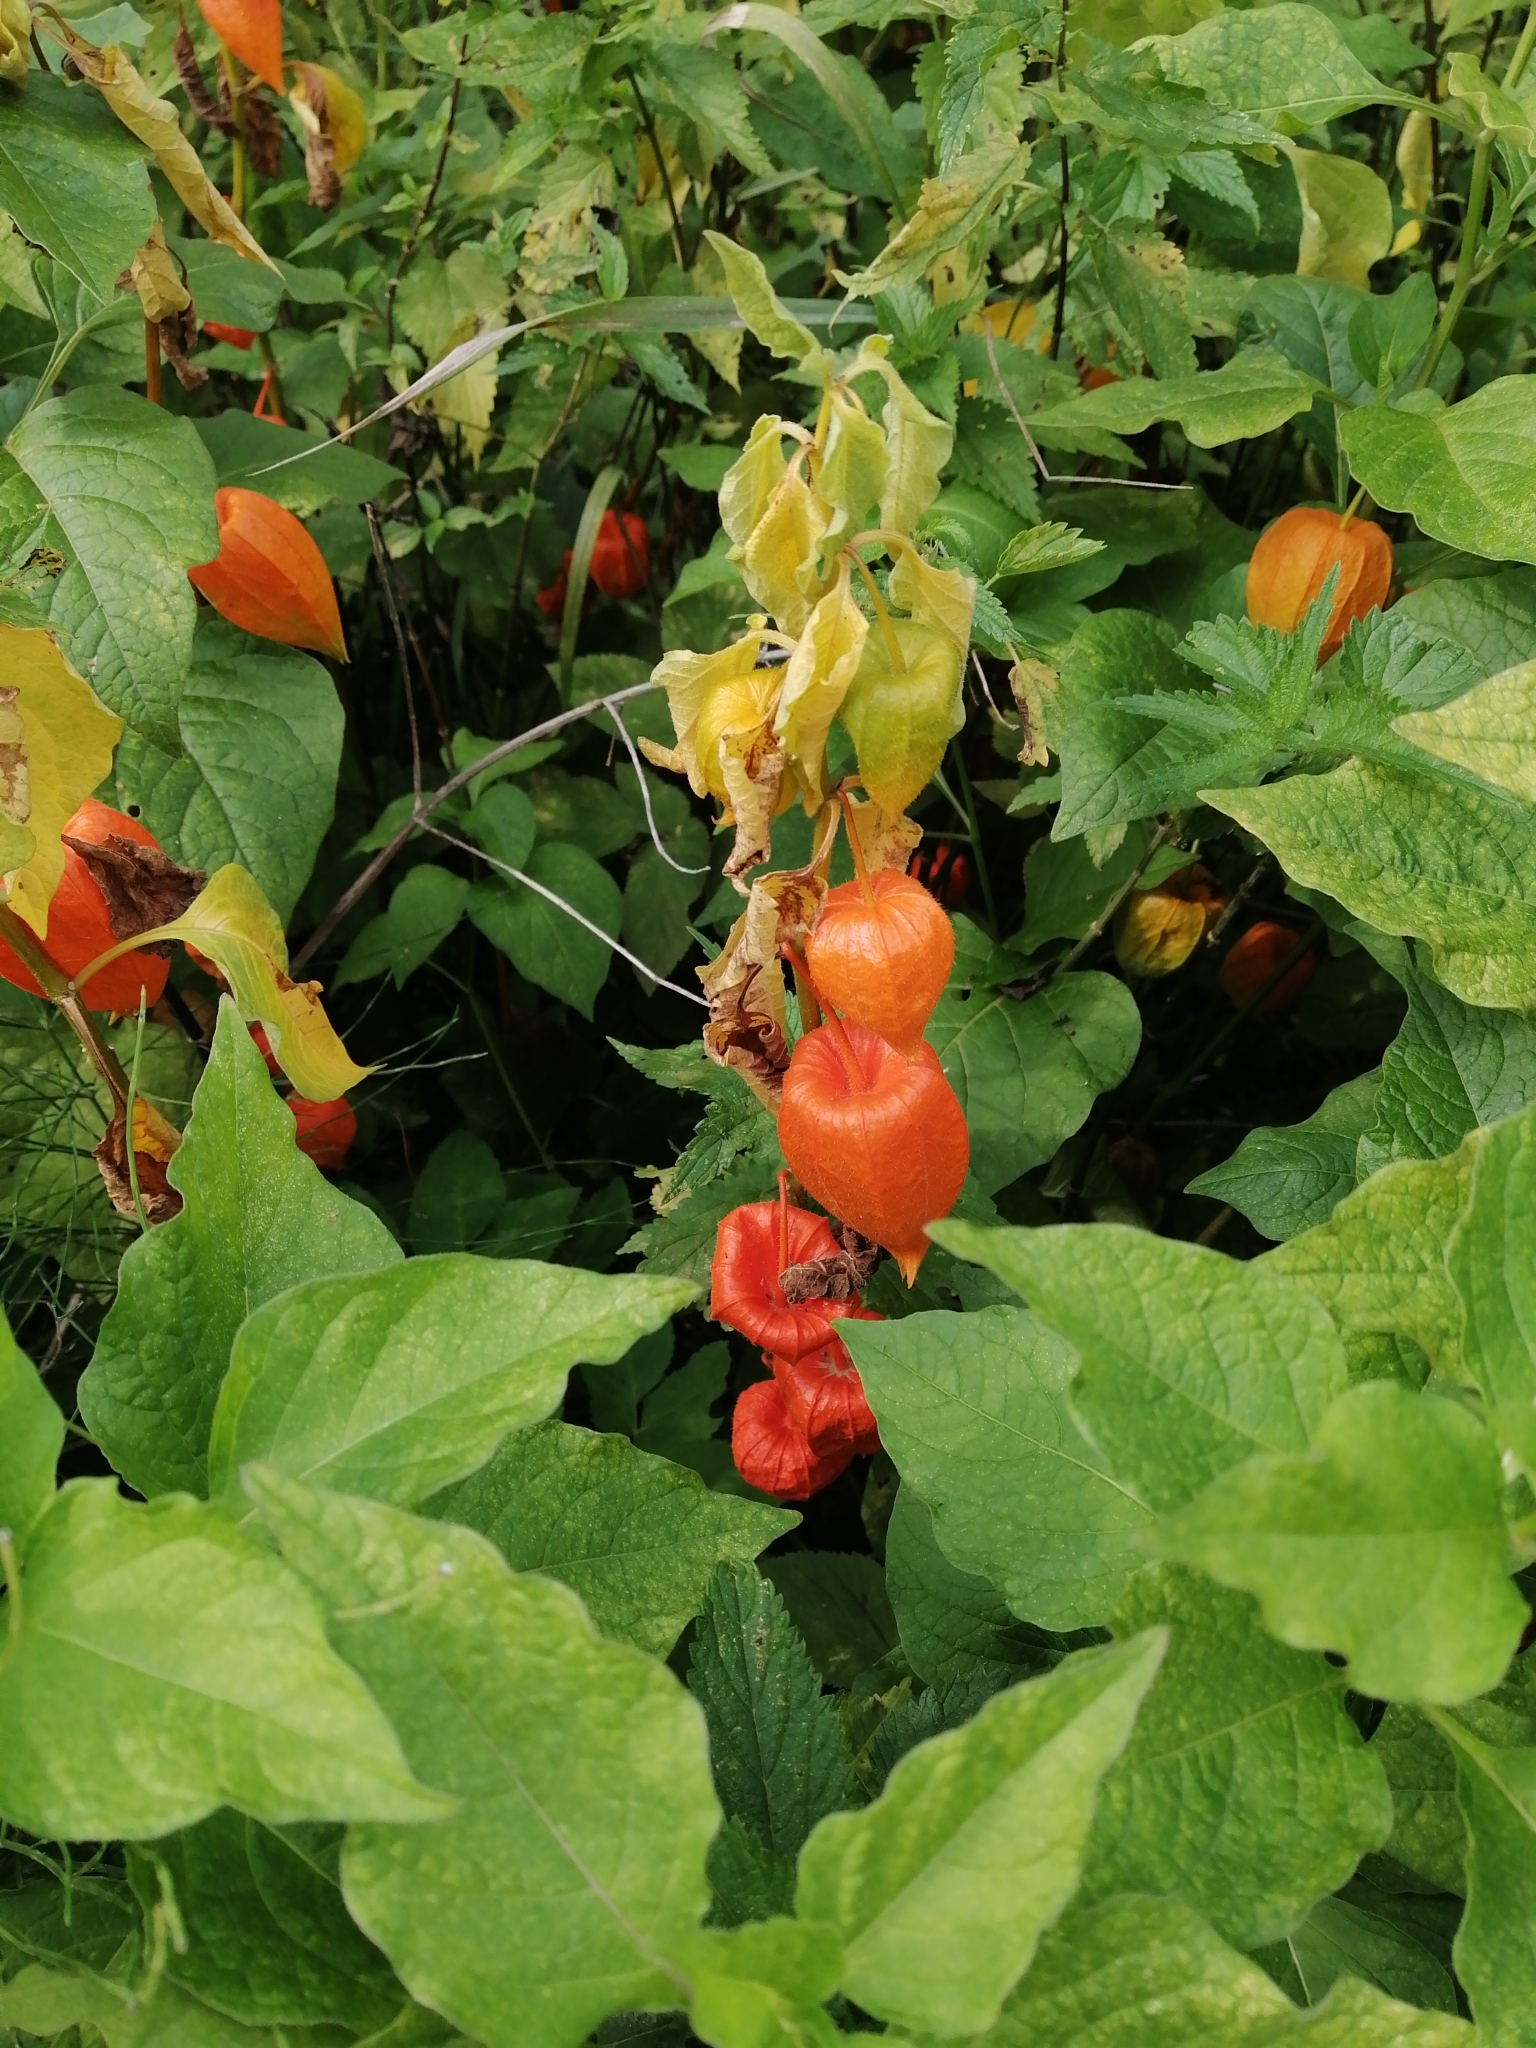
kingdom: Plantae
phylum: Tracheophyta
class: Magnoliopsida
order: Solanales
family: Solanaceae
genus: Alkekengi
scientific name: Alkekengi officinarum
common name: Japanese-lantern
